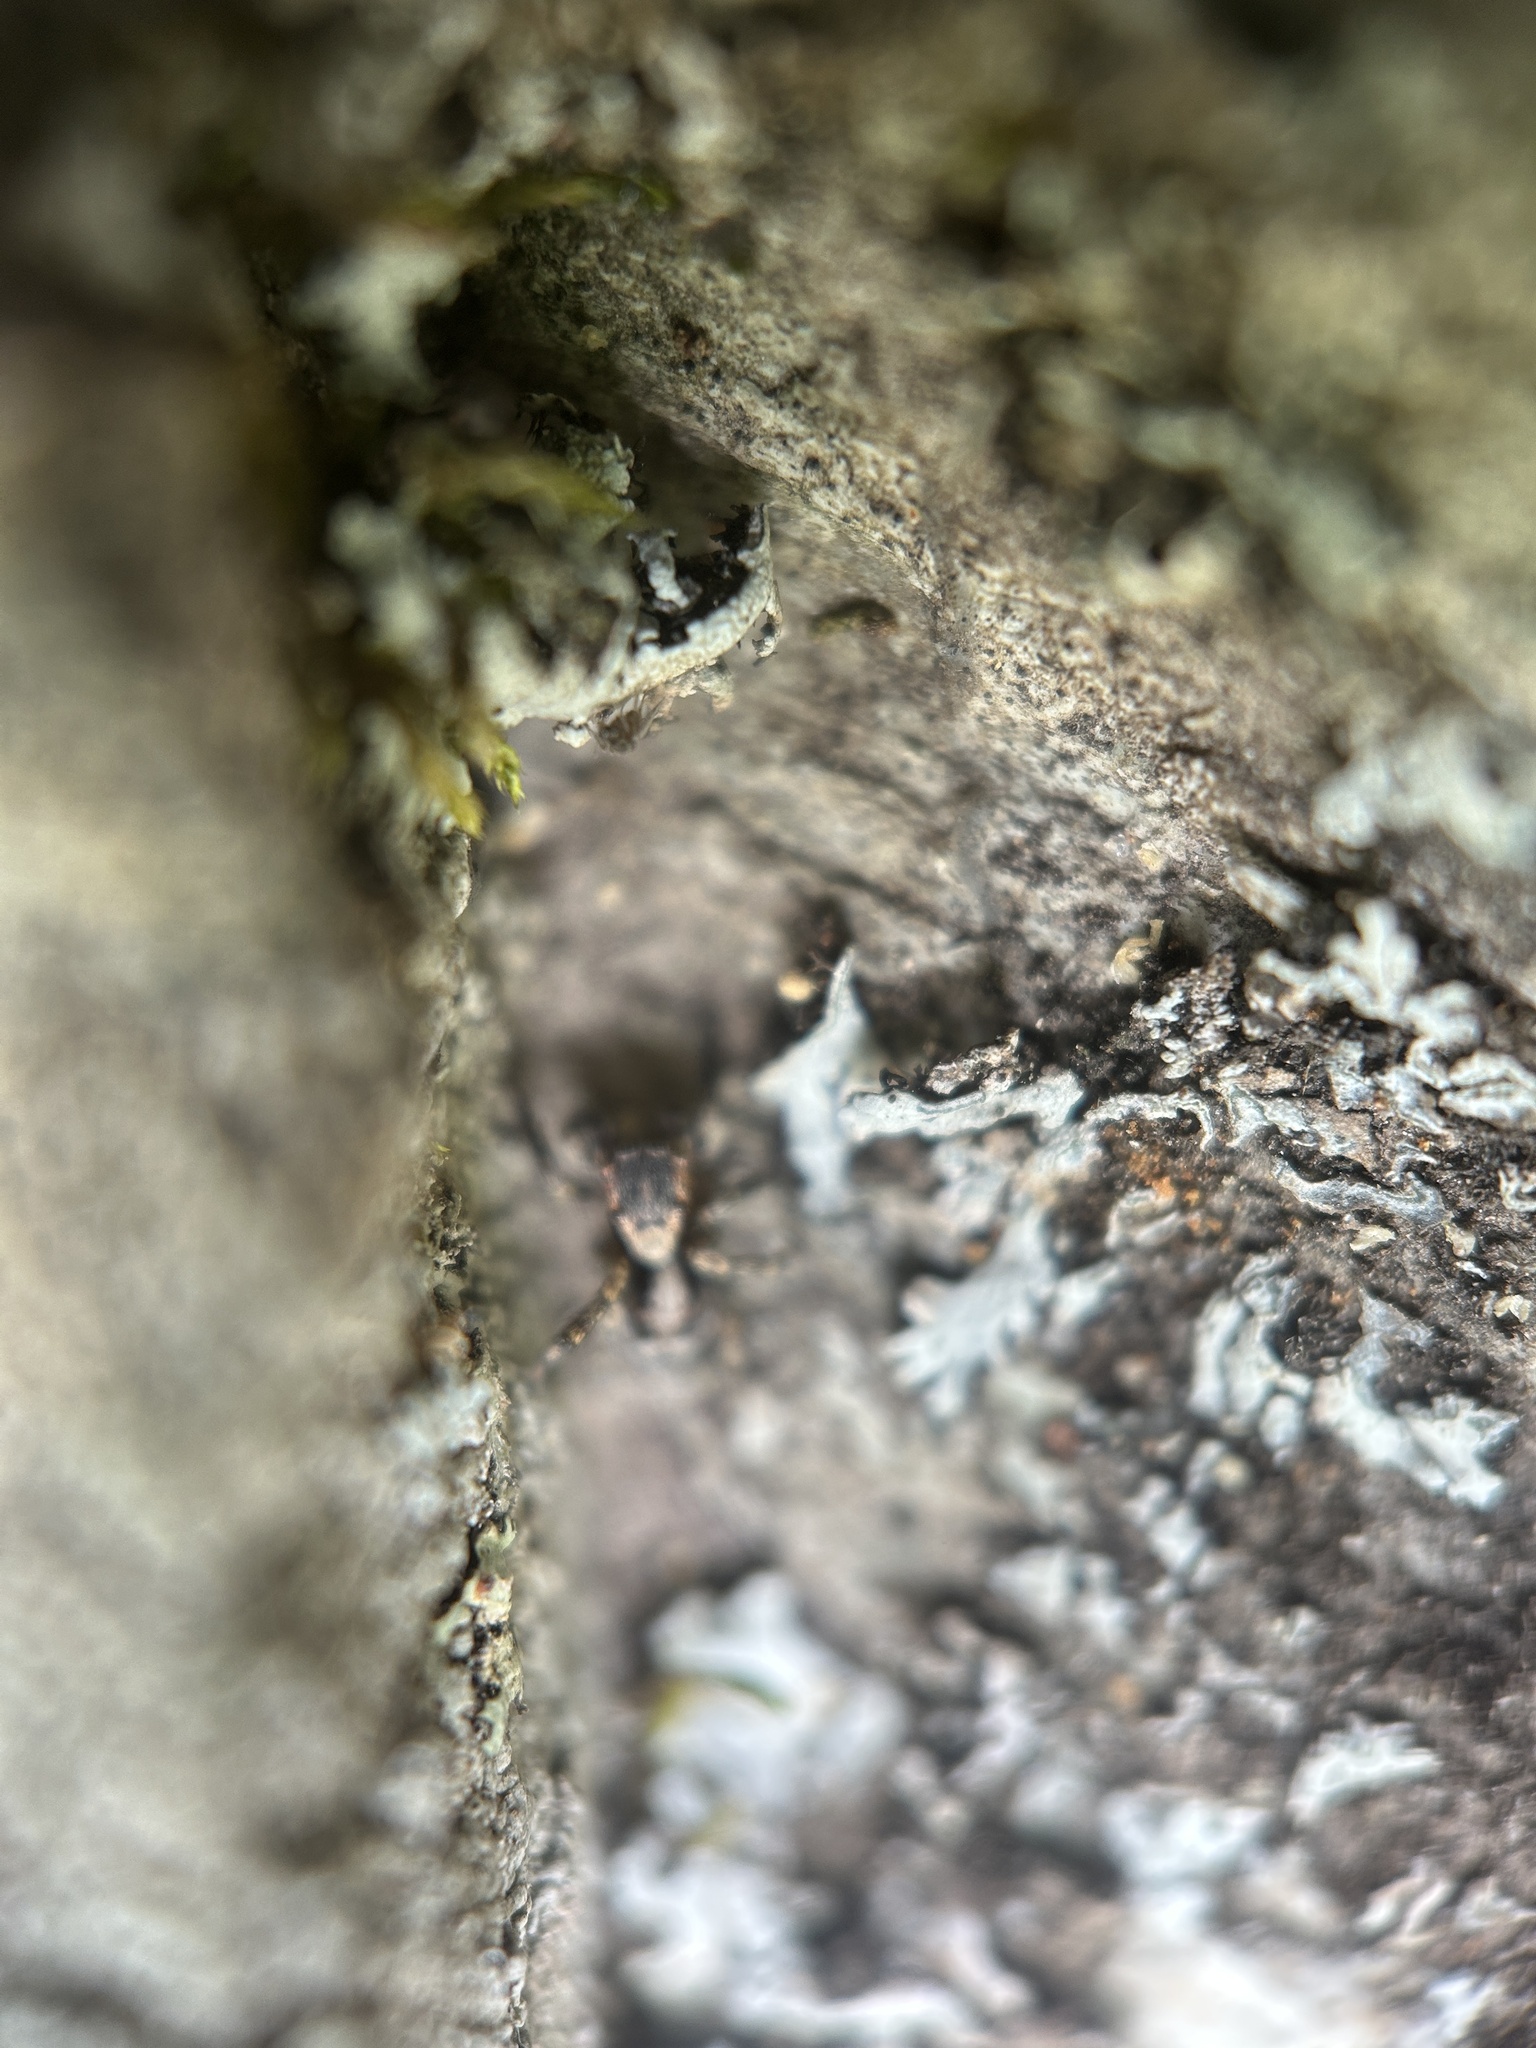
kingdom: Animalia
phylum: Arthropoda
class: Arachnida
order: Araneae
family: Salticidae
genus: Naphrys
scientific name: Naphrys pulex
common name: Flea jumping spider
